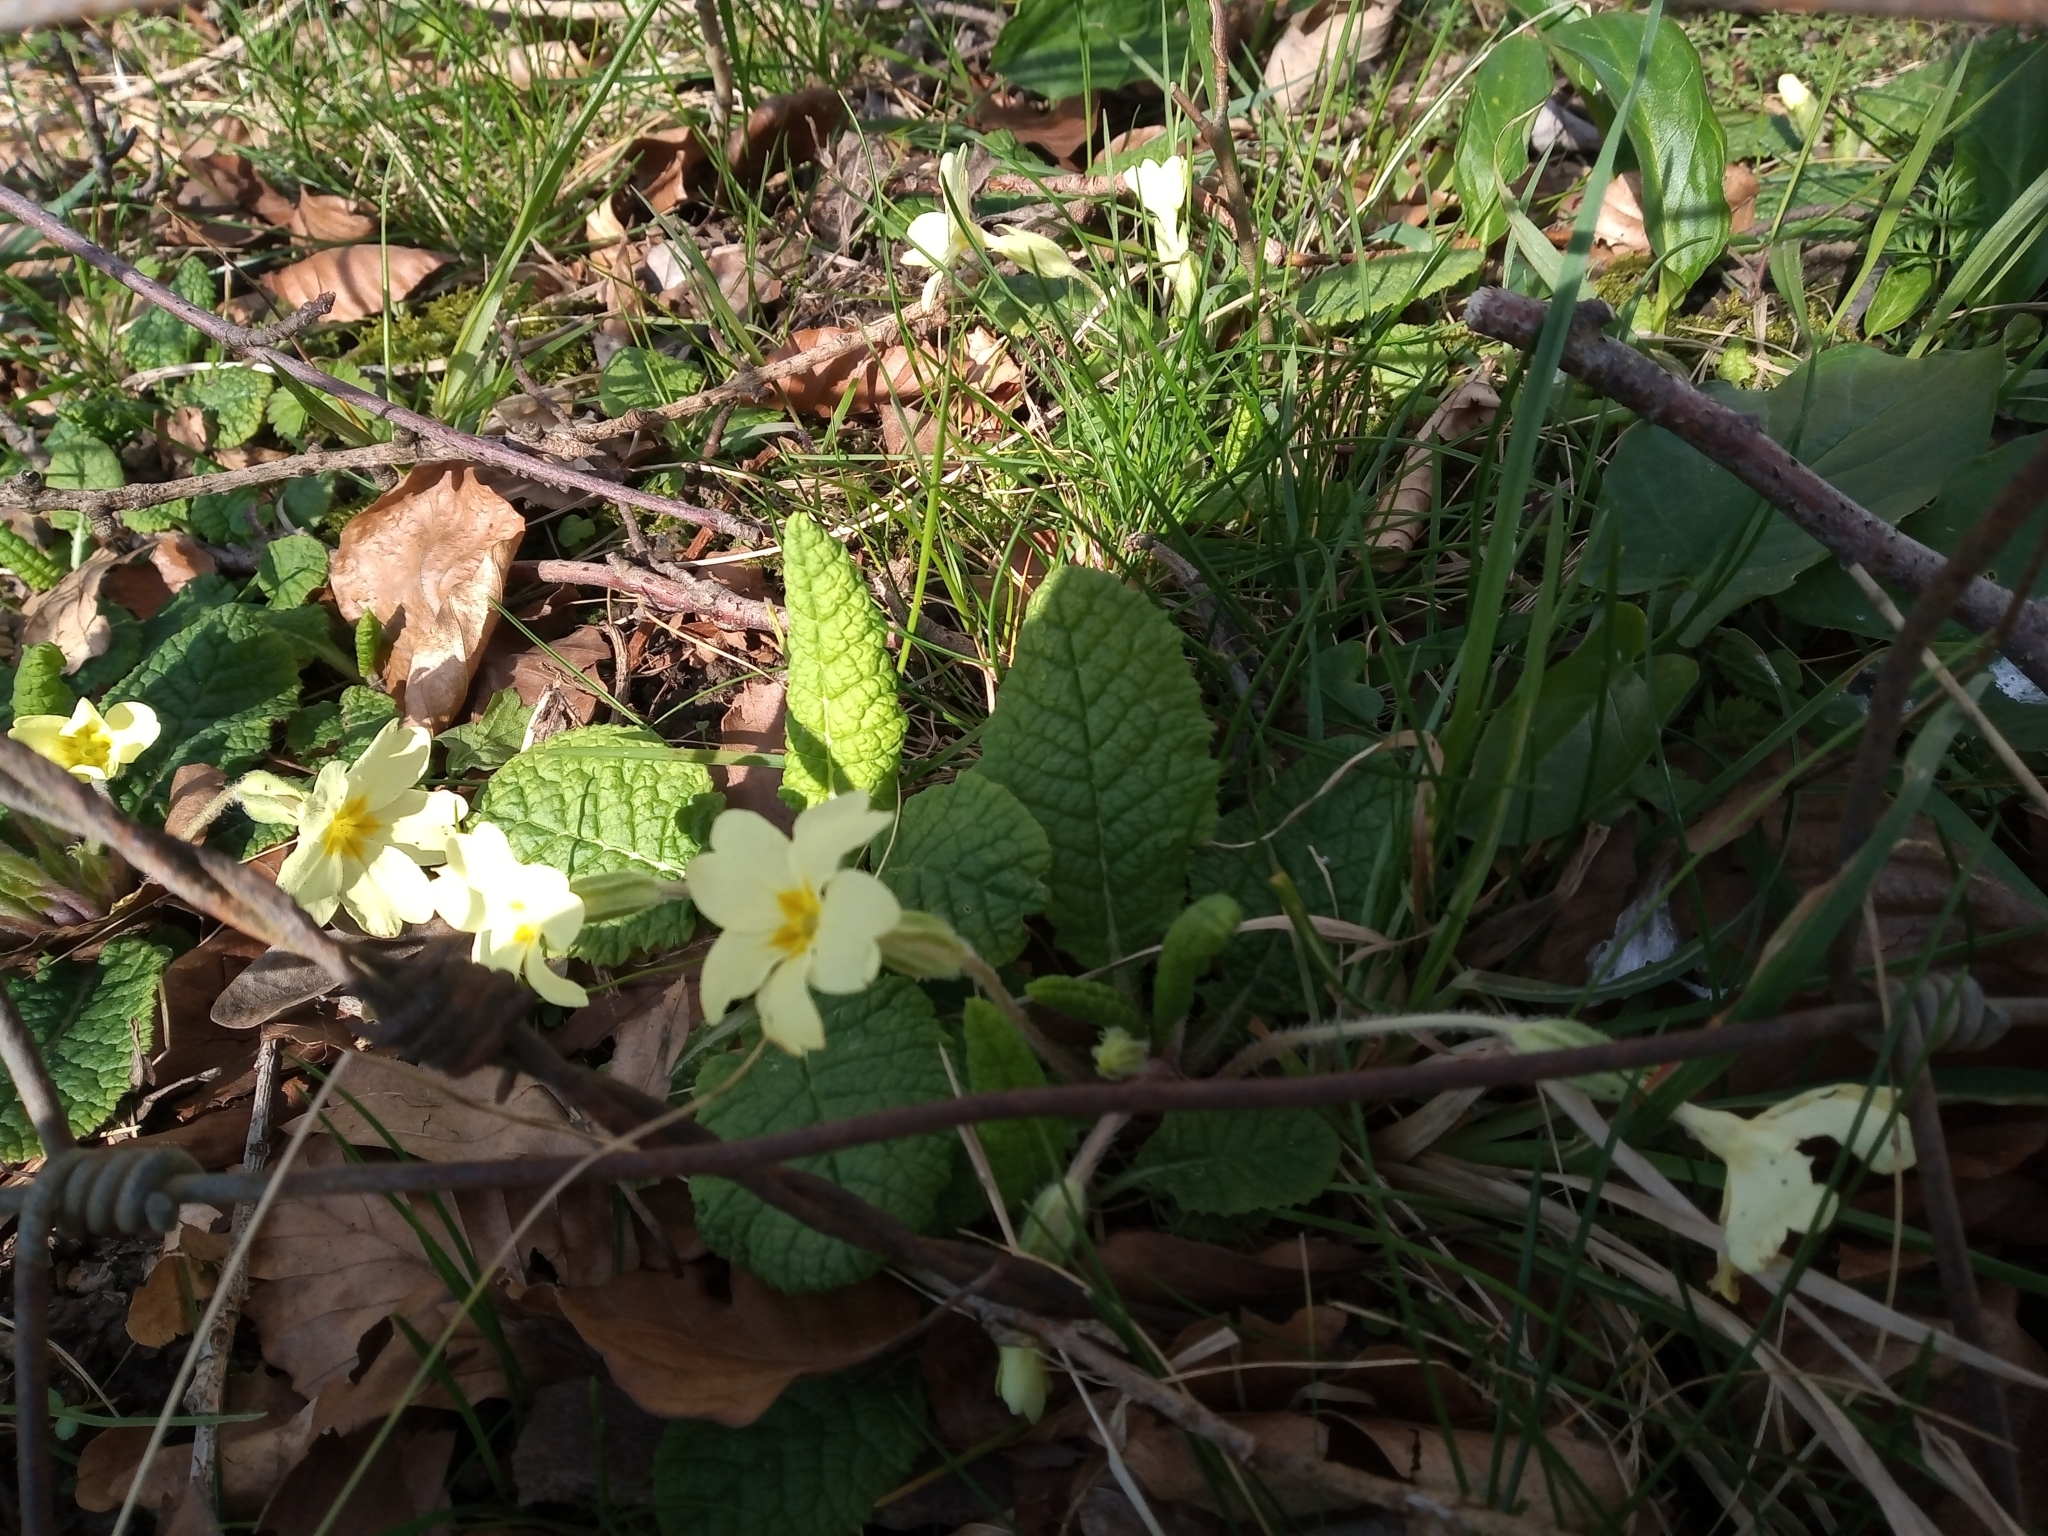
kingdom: Plantae
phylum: Tracheophyta
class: Magnoliopsida
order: Ericales
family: Primulaceae
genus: Primula
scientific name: Primula vulgaris
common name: Primrose
